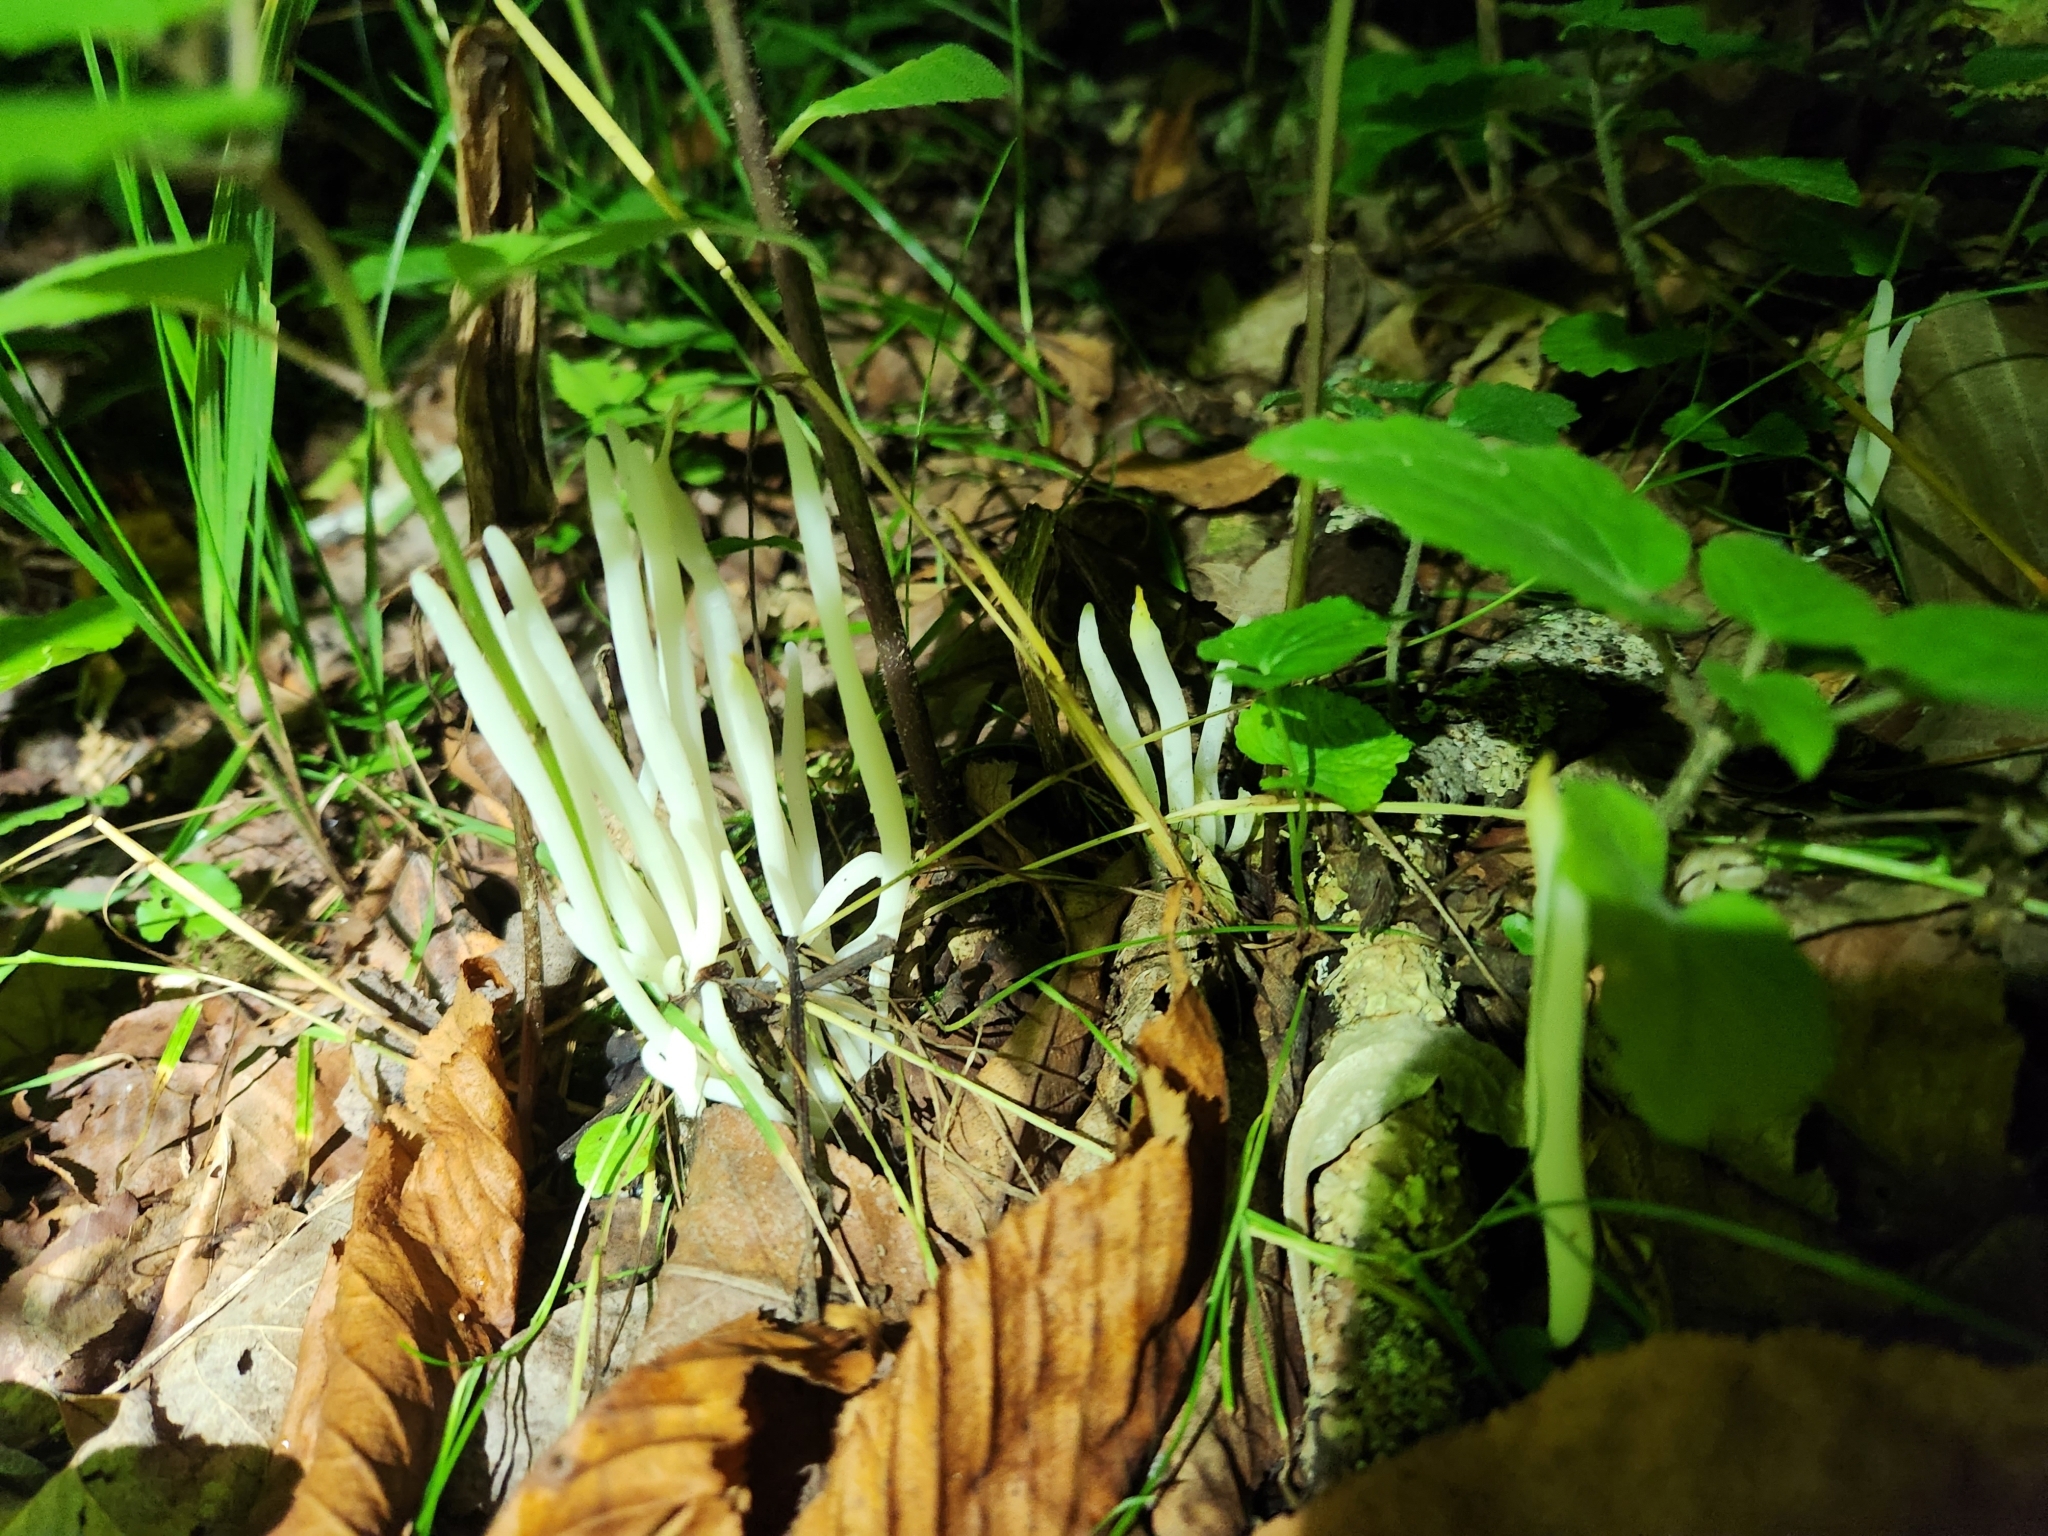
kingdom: Fungi
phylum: Basidiomycota
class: Agaricomycetes
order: Agaricales
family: Clavariaceae
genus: Clavaria
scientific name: Clavaria fragilis
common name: White spindles
